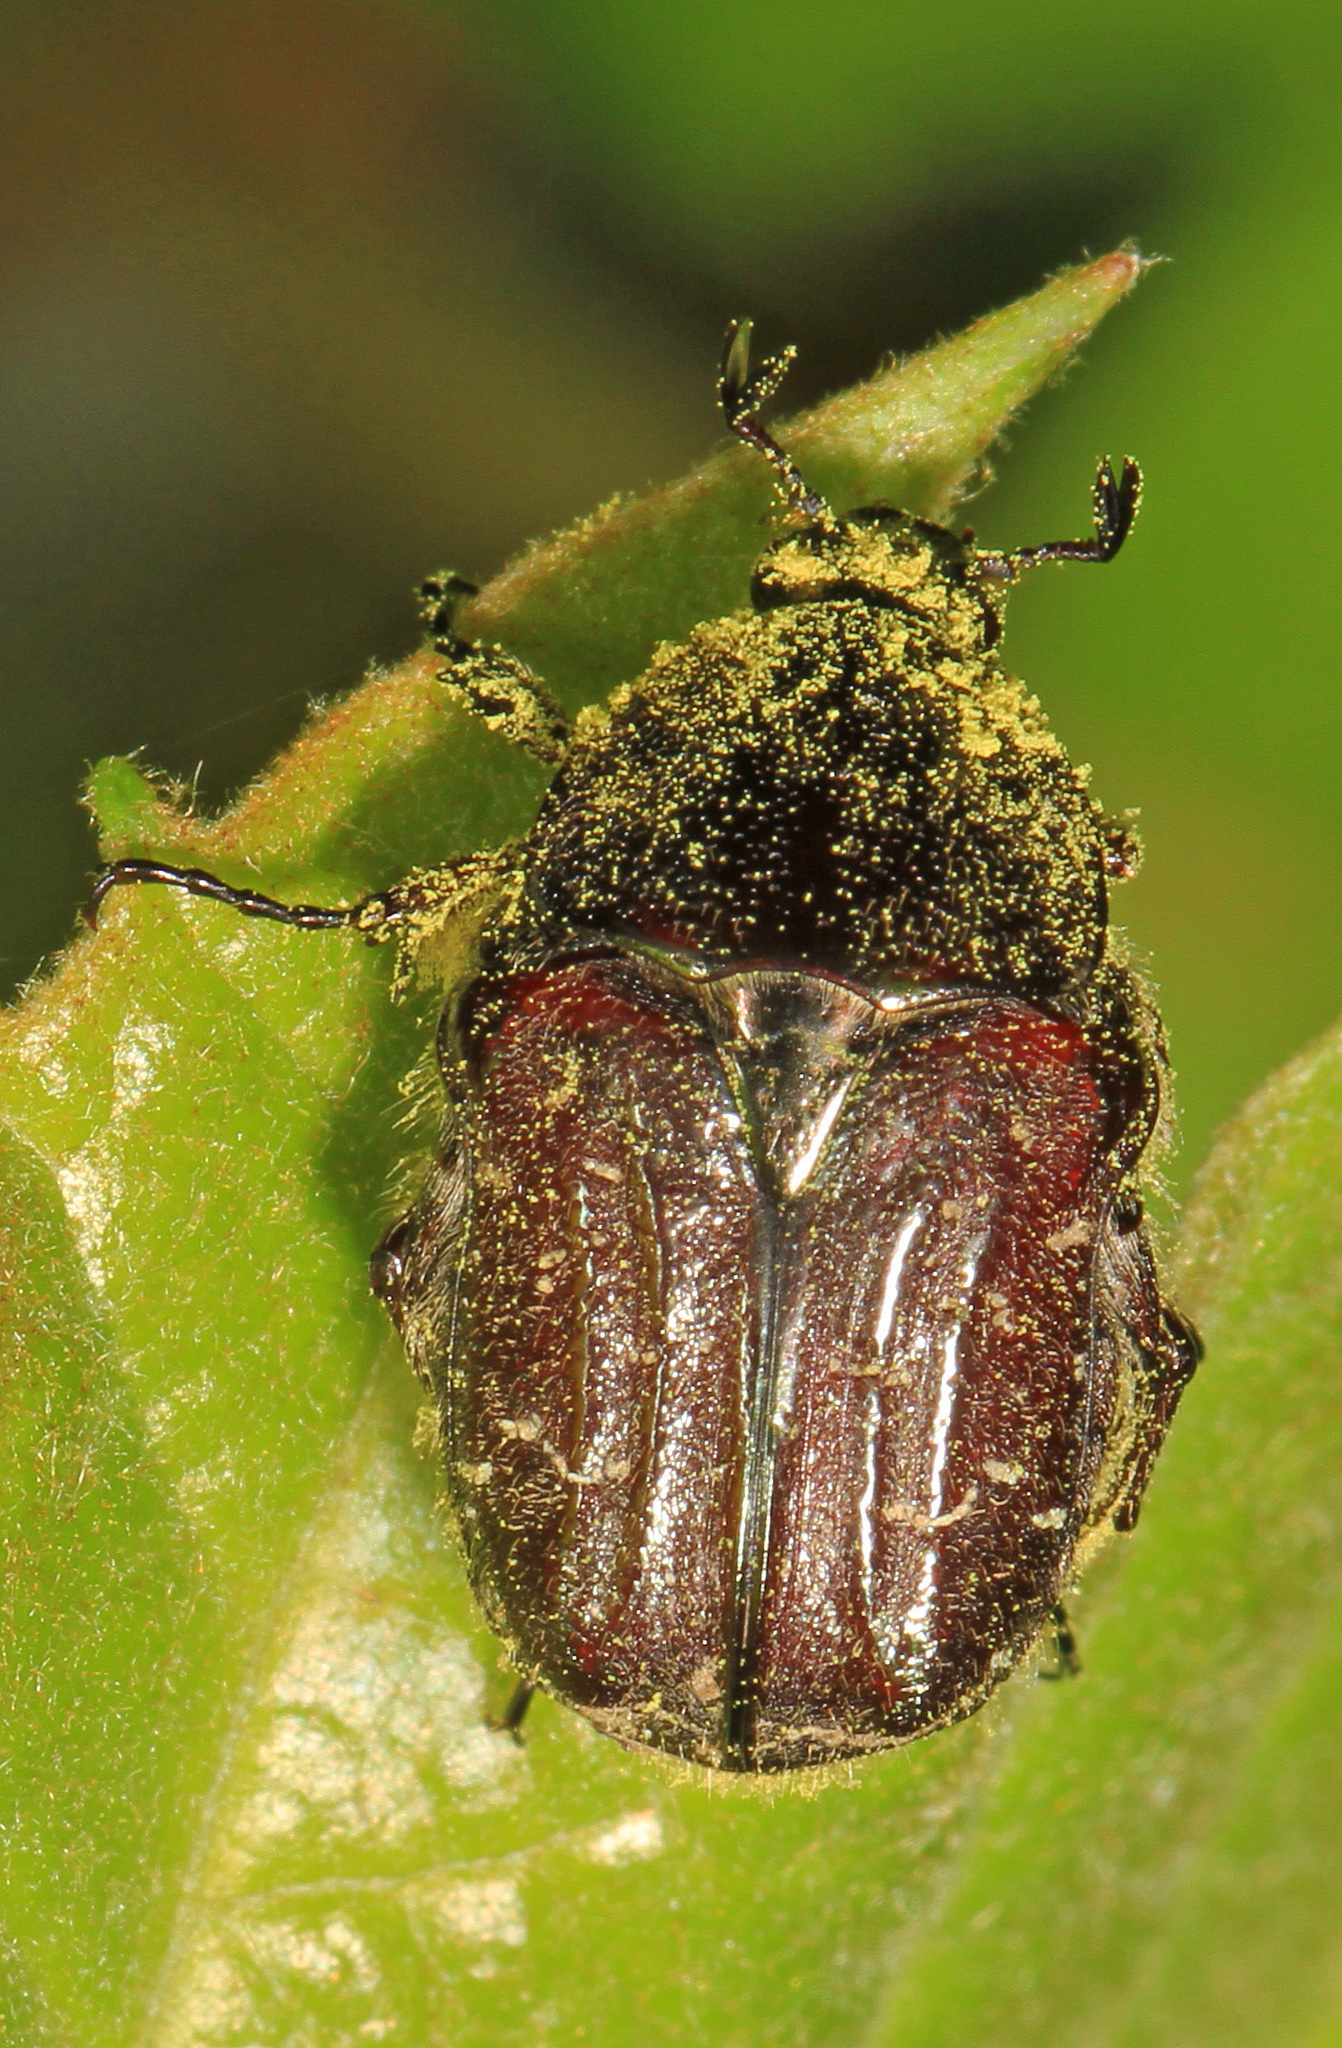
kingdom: Animalia
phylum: Arthropoda
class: Insecta
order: Coleoptera
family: Scarabaeidae
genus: Euphoria
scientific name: Euphoria sepulcralis
